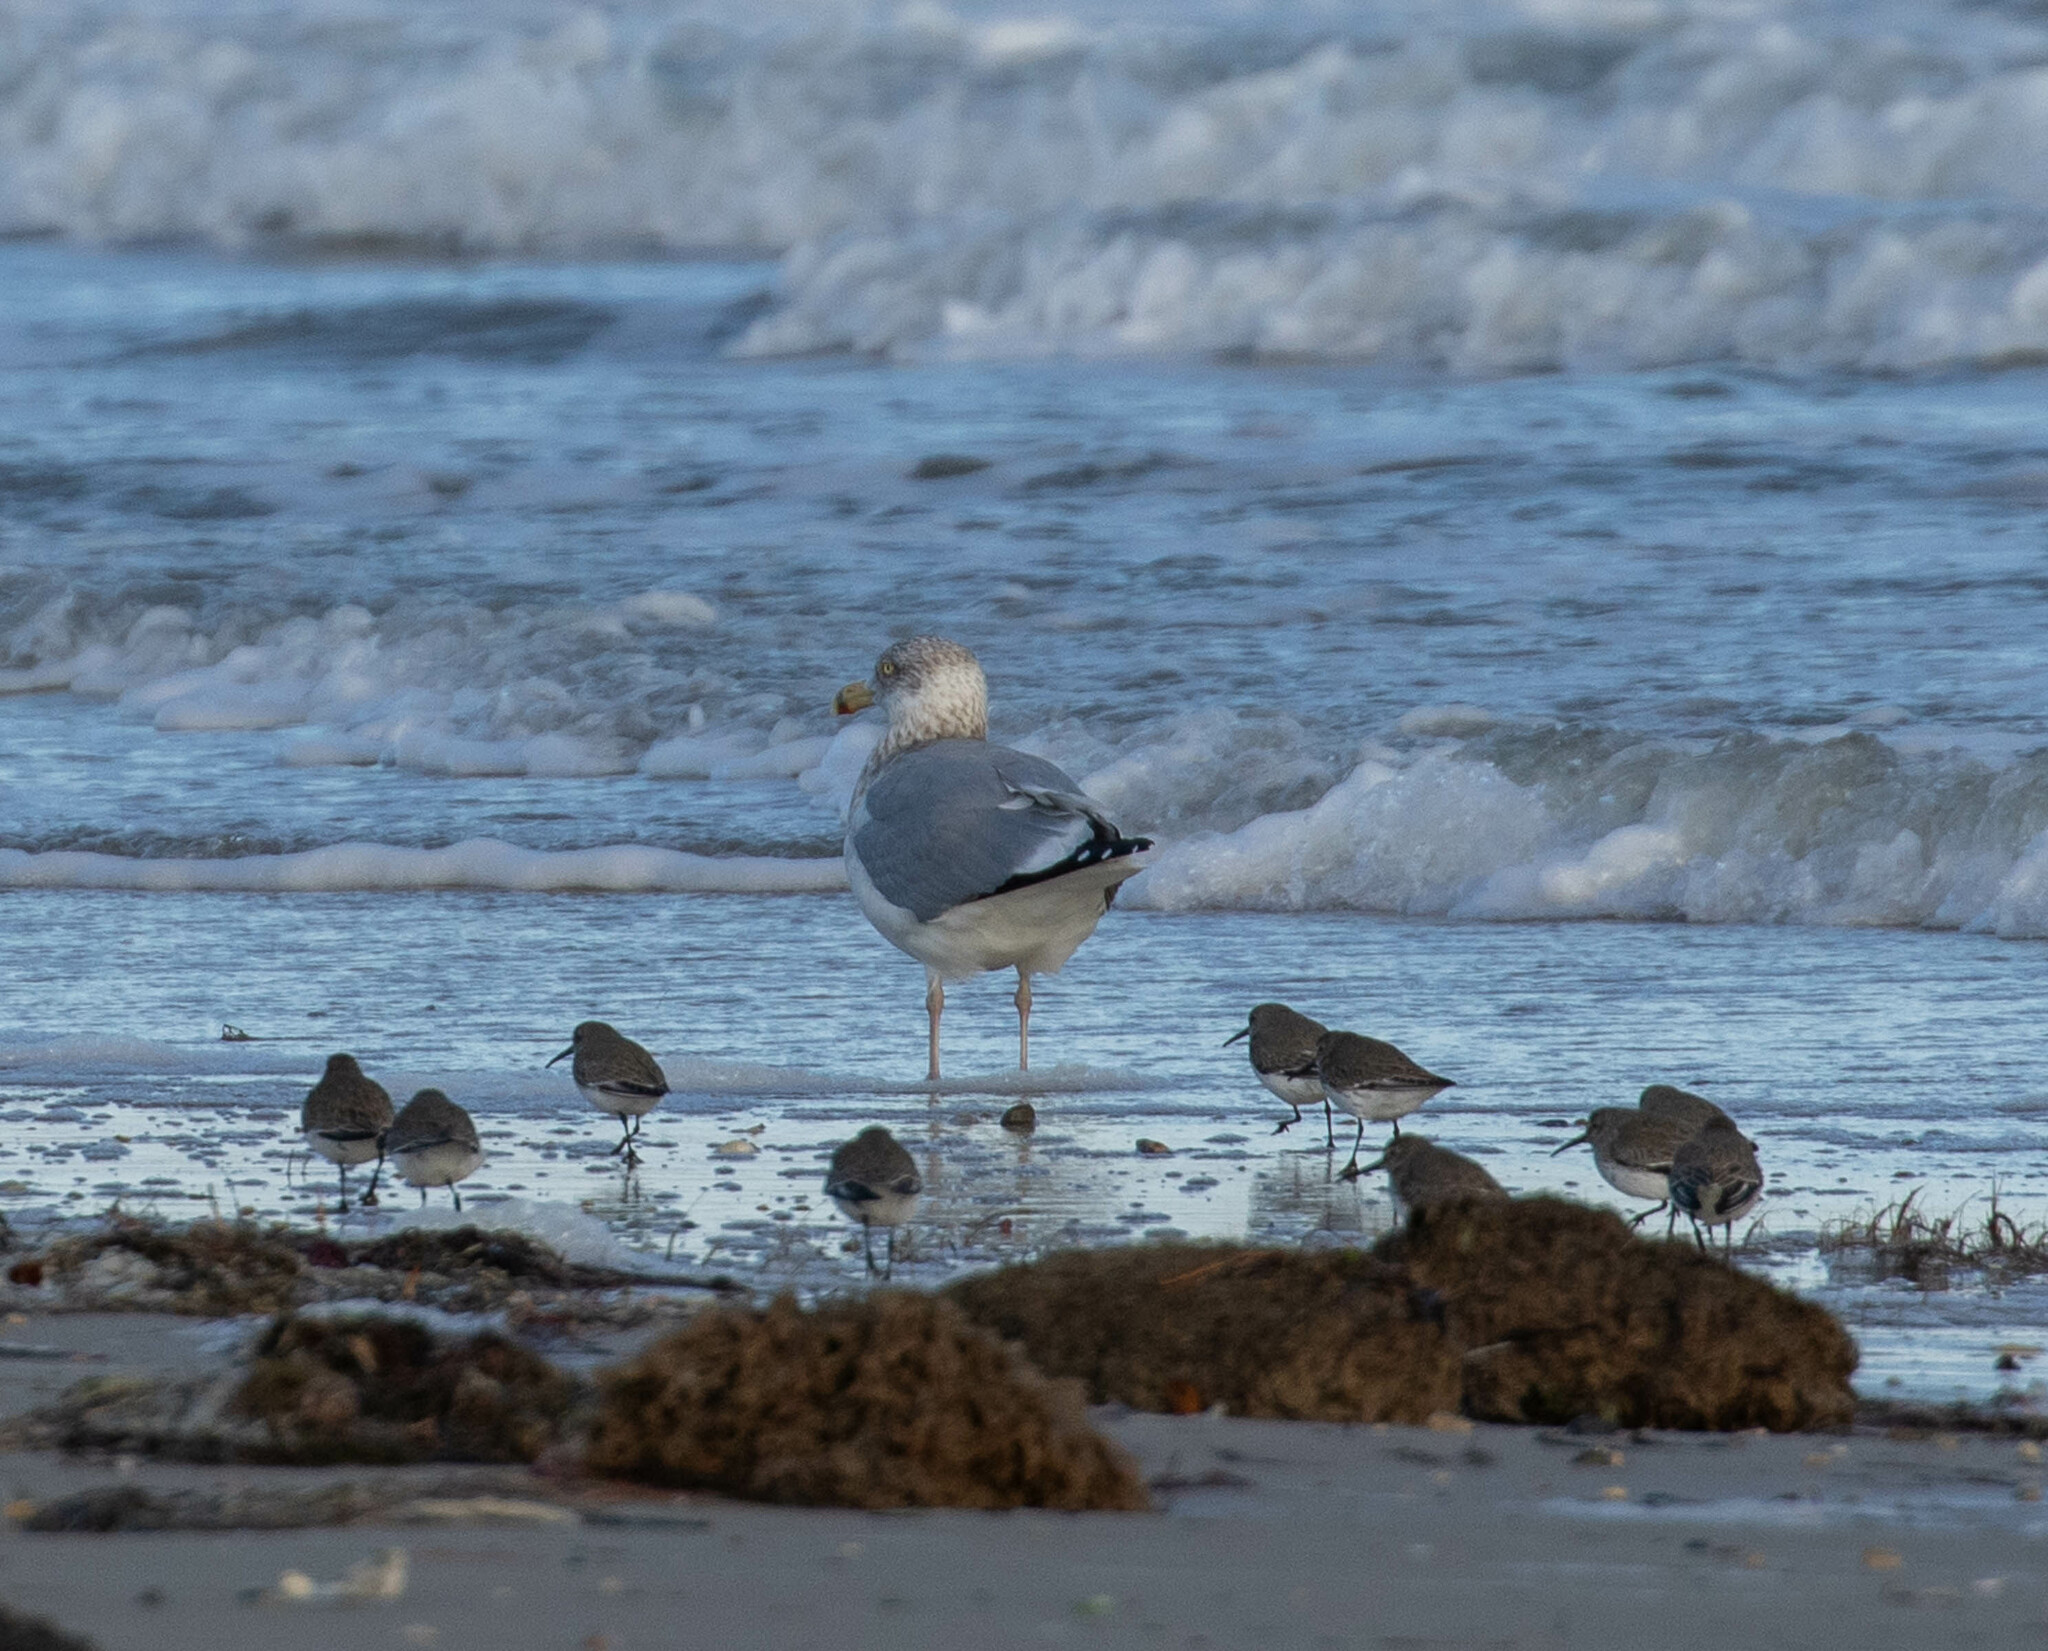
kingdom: Animalia
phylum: Chordata
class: Aves
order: Charadriiformes
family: Laridae
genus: Larus
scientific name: Larus argentatus
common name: Herring gull
